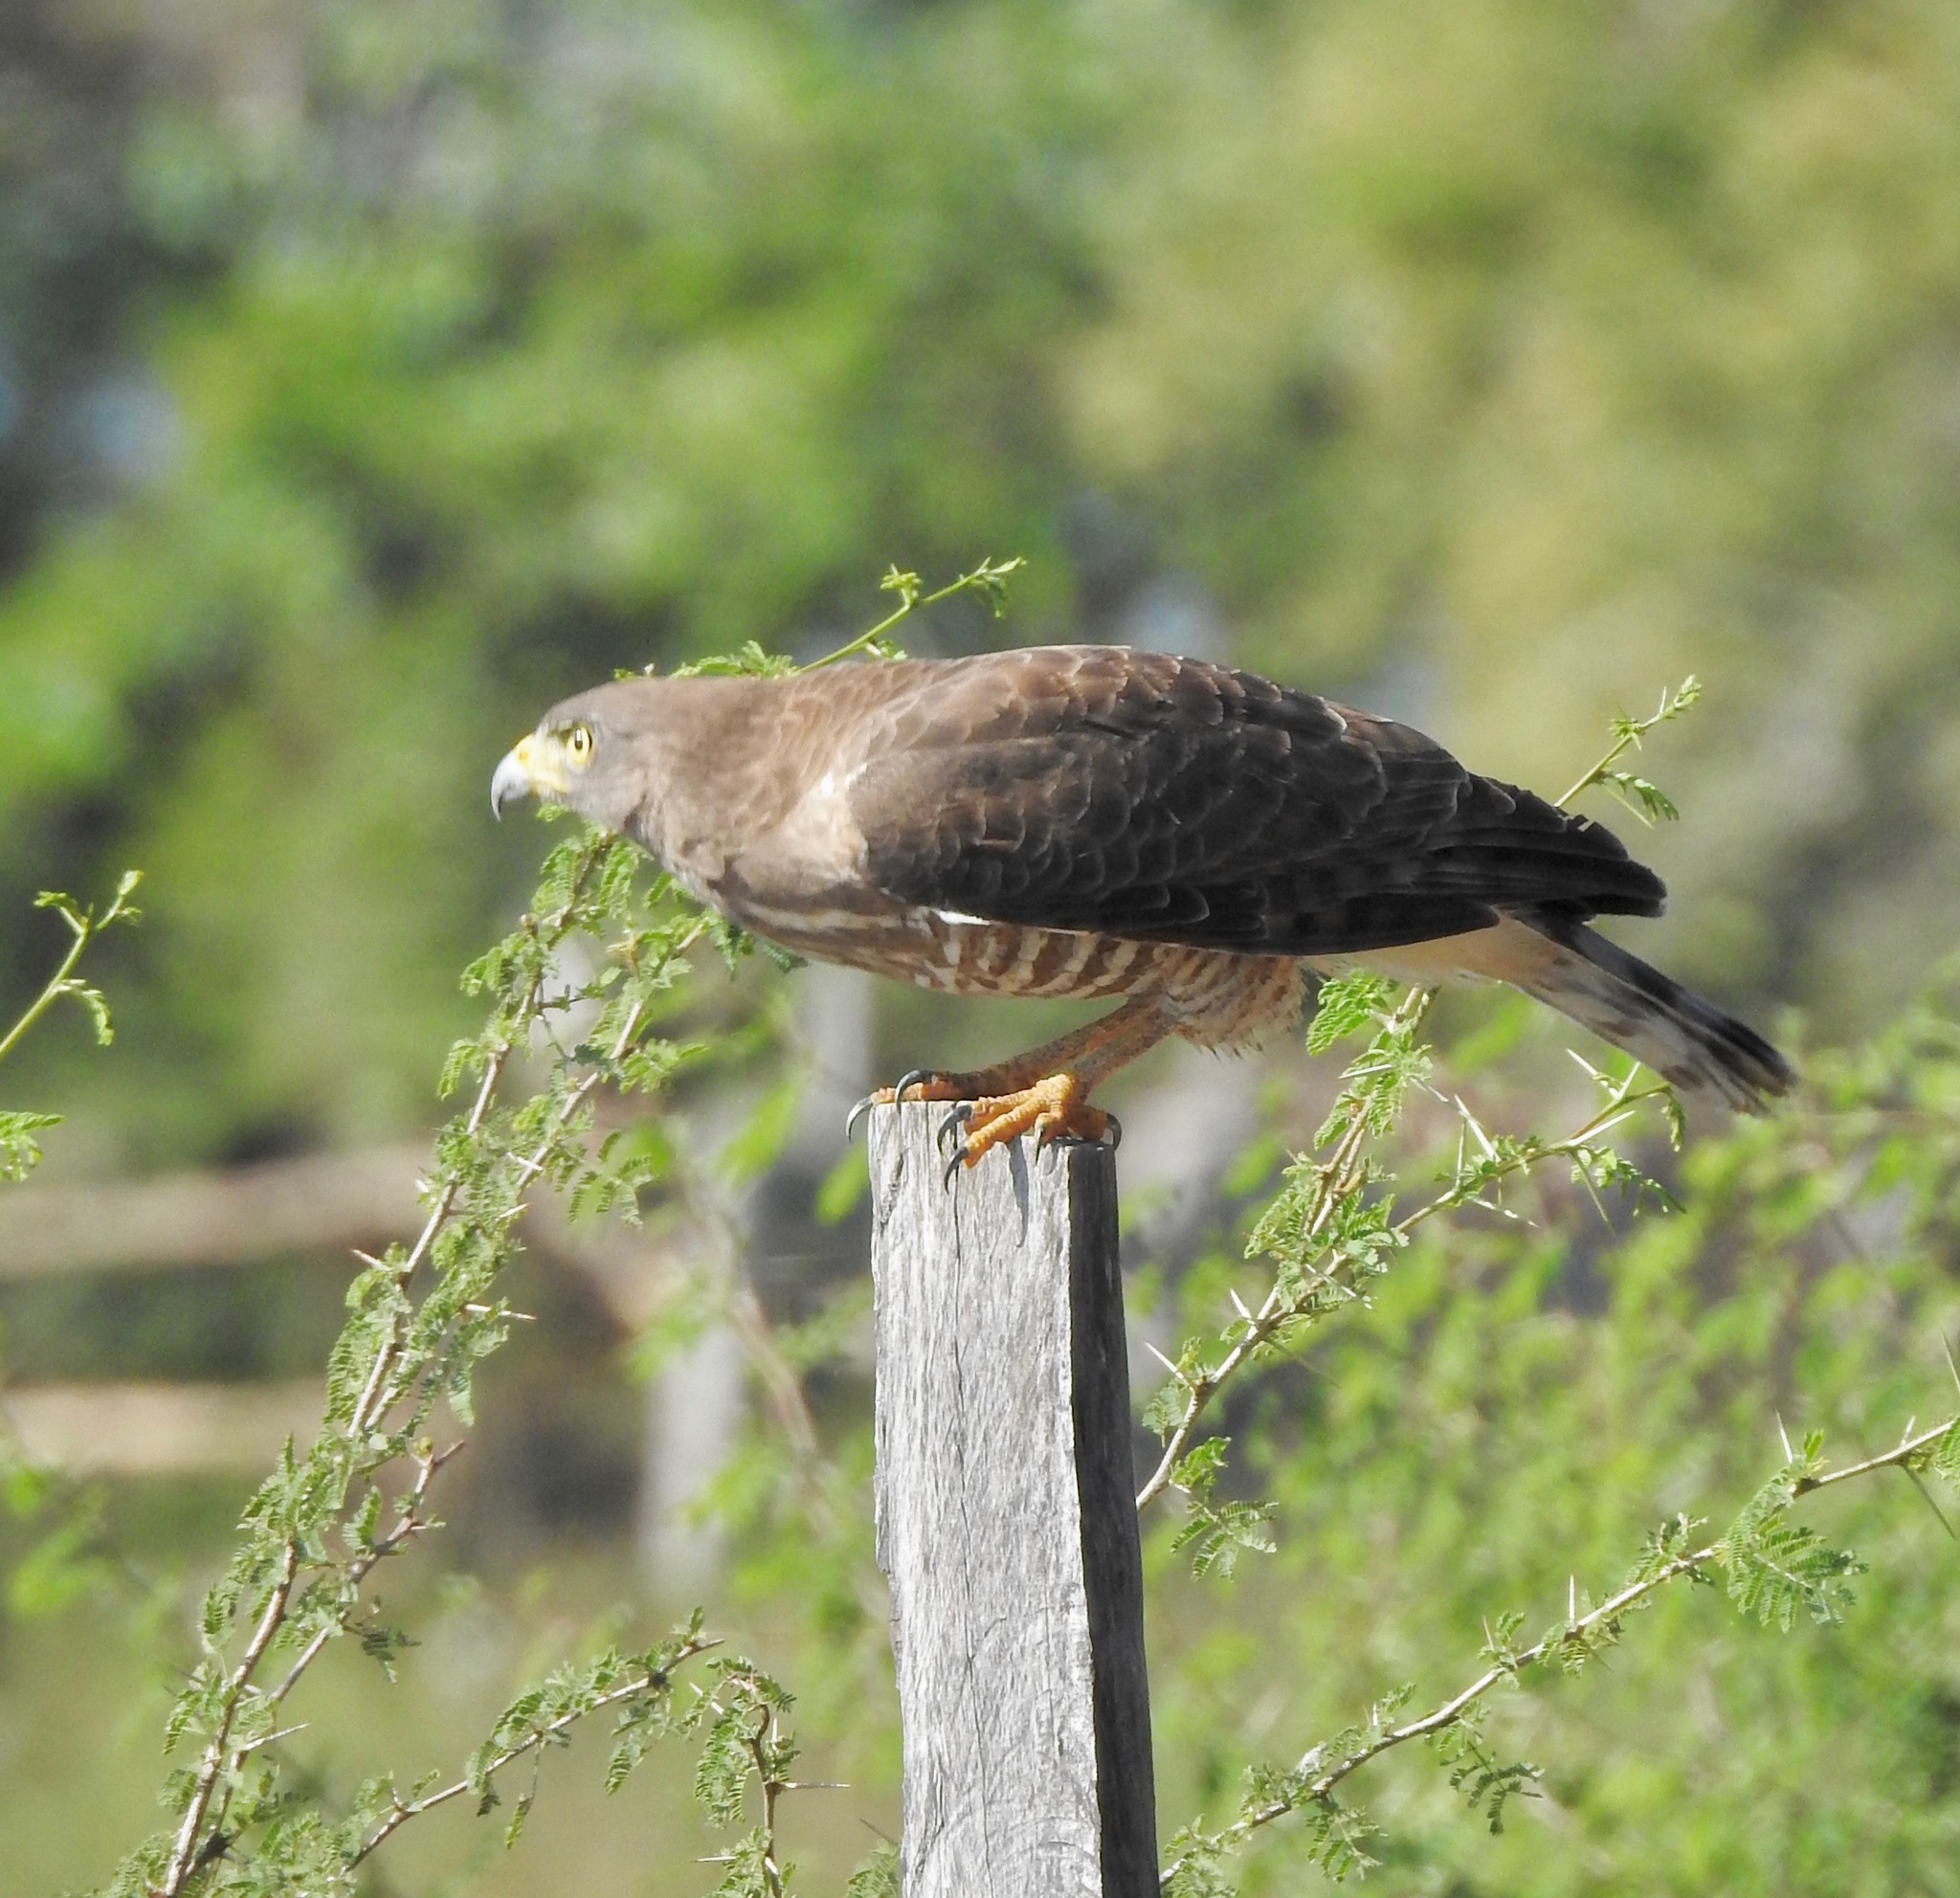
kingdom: Animalia
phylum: Chordata
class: Aves
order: Accipitriformes
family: Accipitridae
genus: Rupornis
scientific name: Rupornis magnirostris
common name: Roadside hawk
